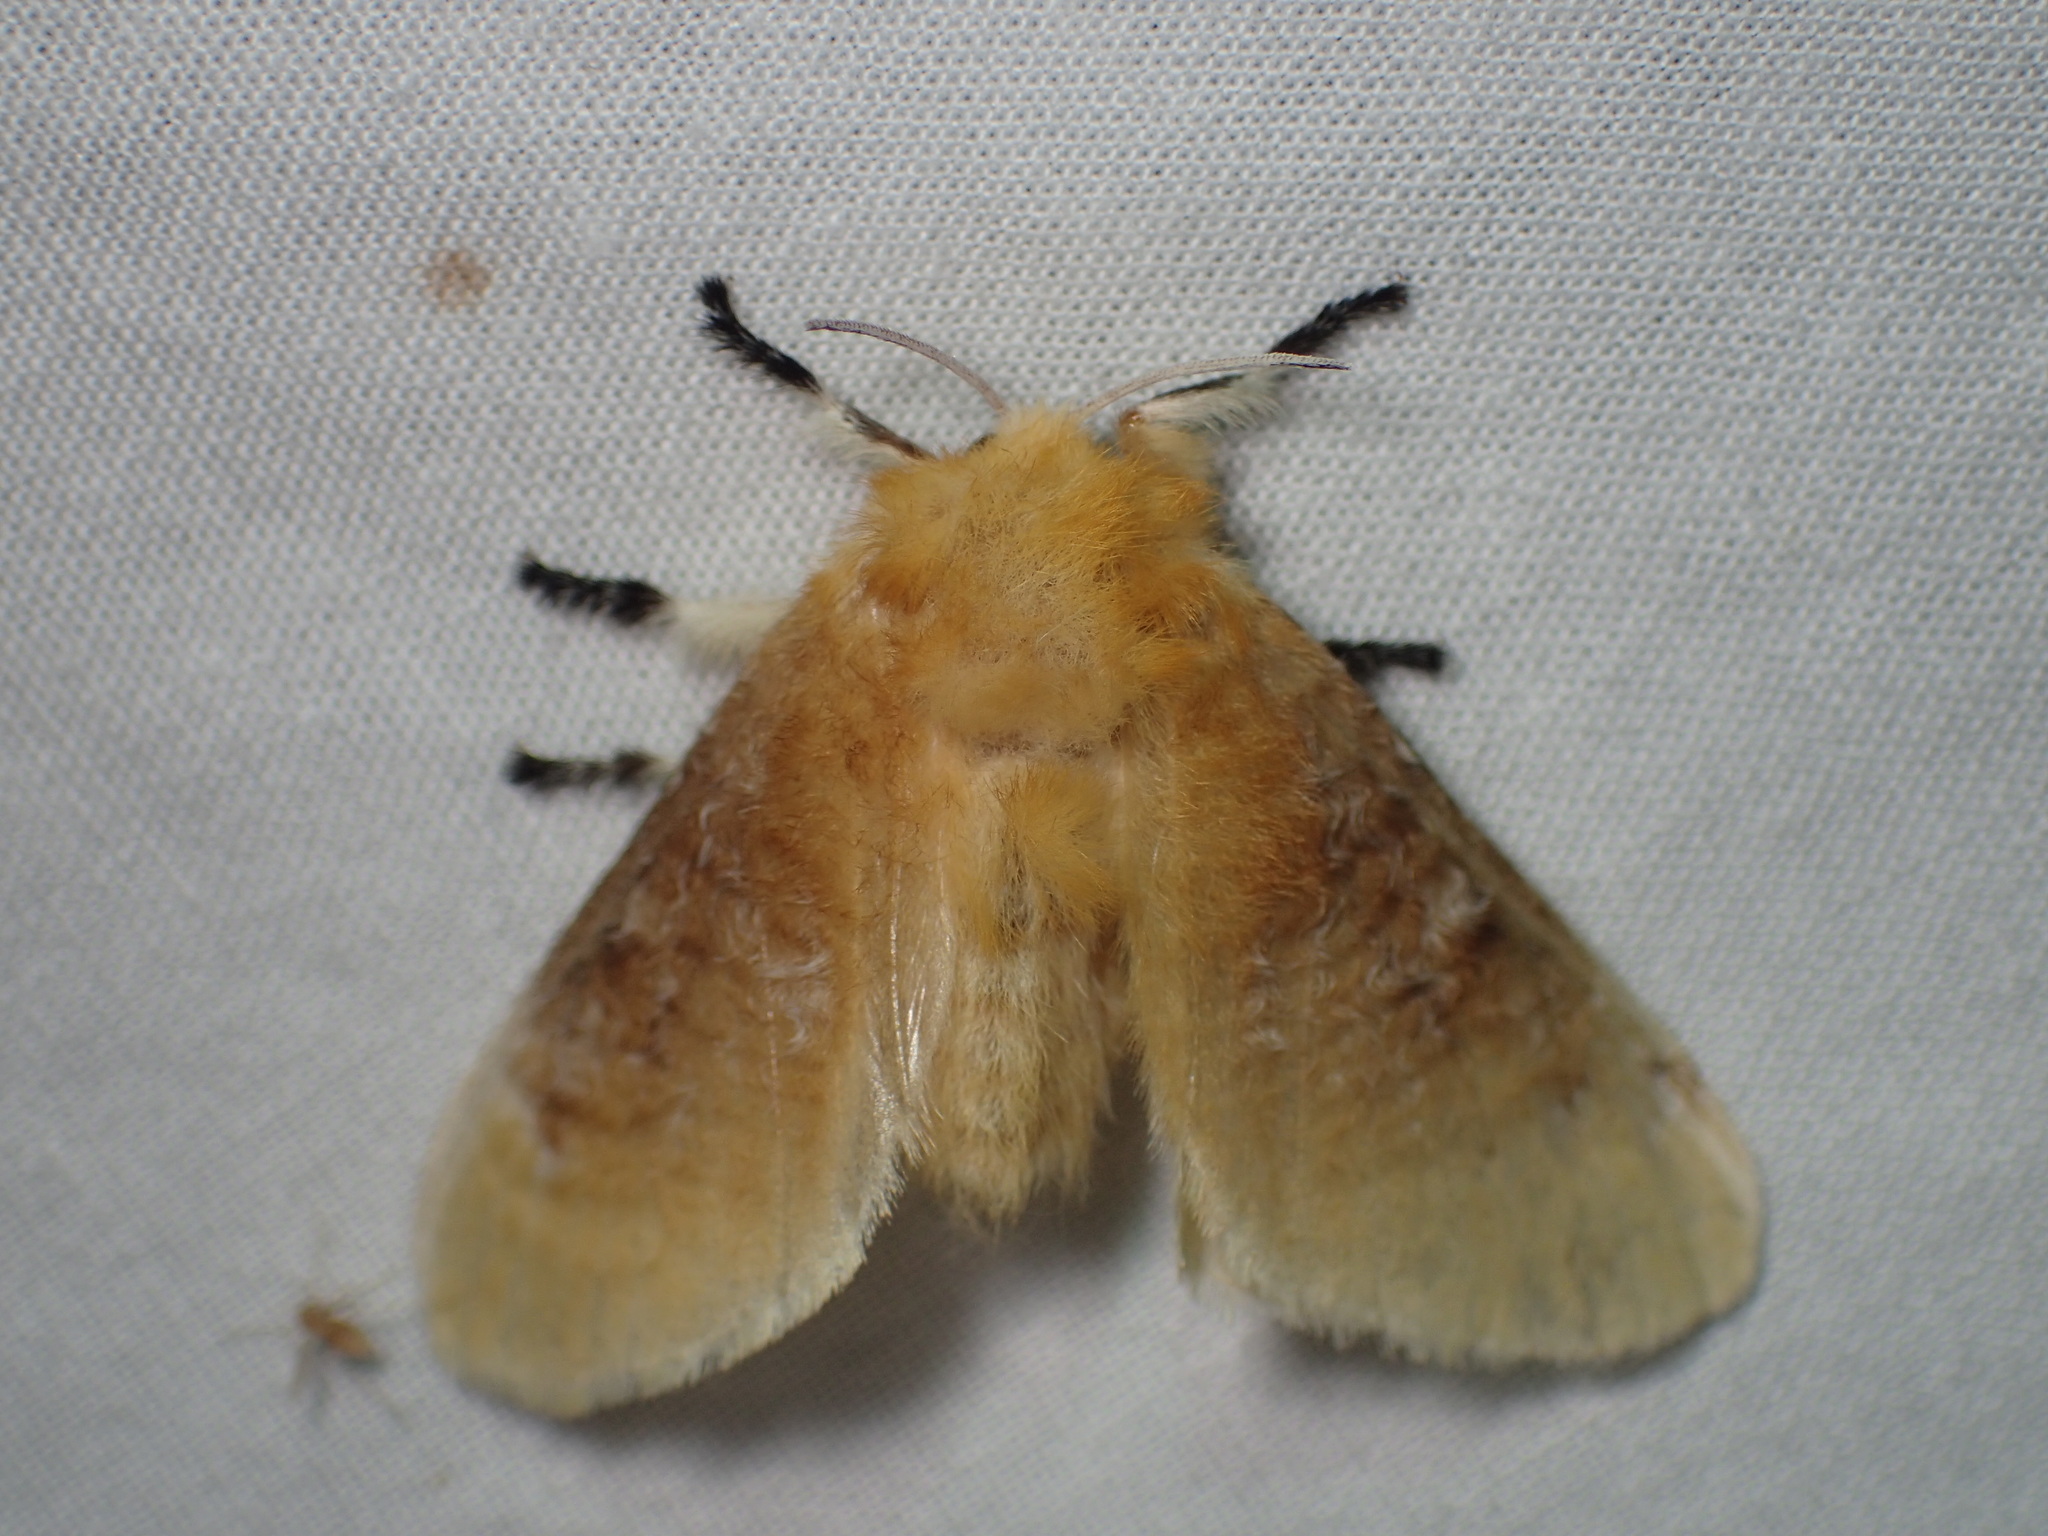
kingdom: Animalia
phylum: Arthropoda
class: Insecta
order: Lepidoptera
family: Megalopygidae
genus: Megalopyge
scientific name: Megalopyge opercularis
